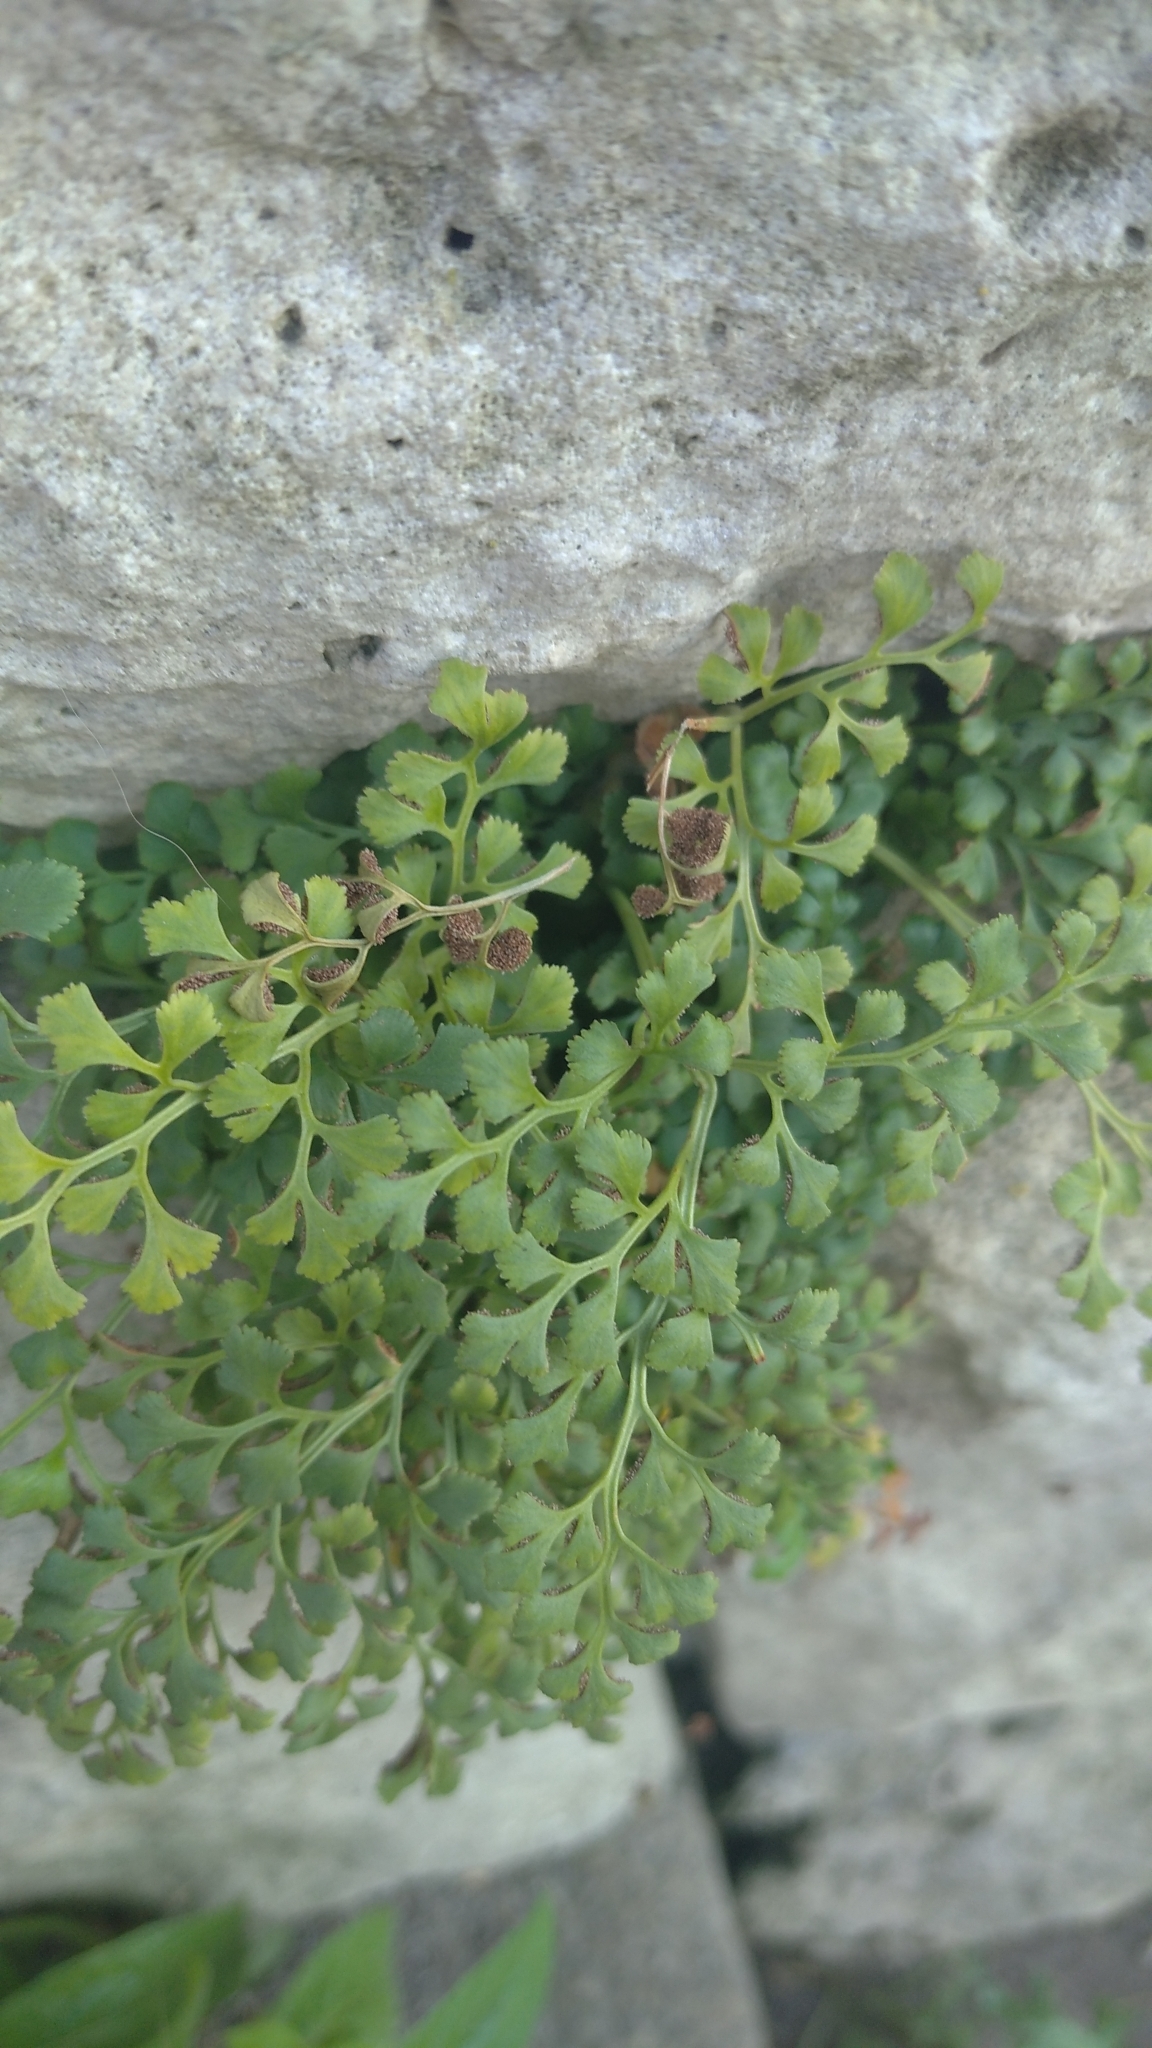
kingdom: Plantae
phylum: Tracheophyta
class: Polypodiopsida
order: Polypodiales
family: Aspleniaceae
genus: Asplenium
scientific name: Asplenium ruta-muraria
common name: Wall-rue
